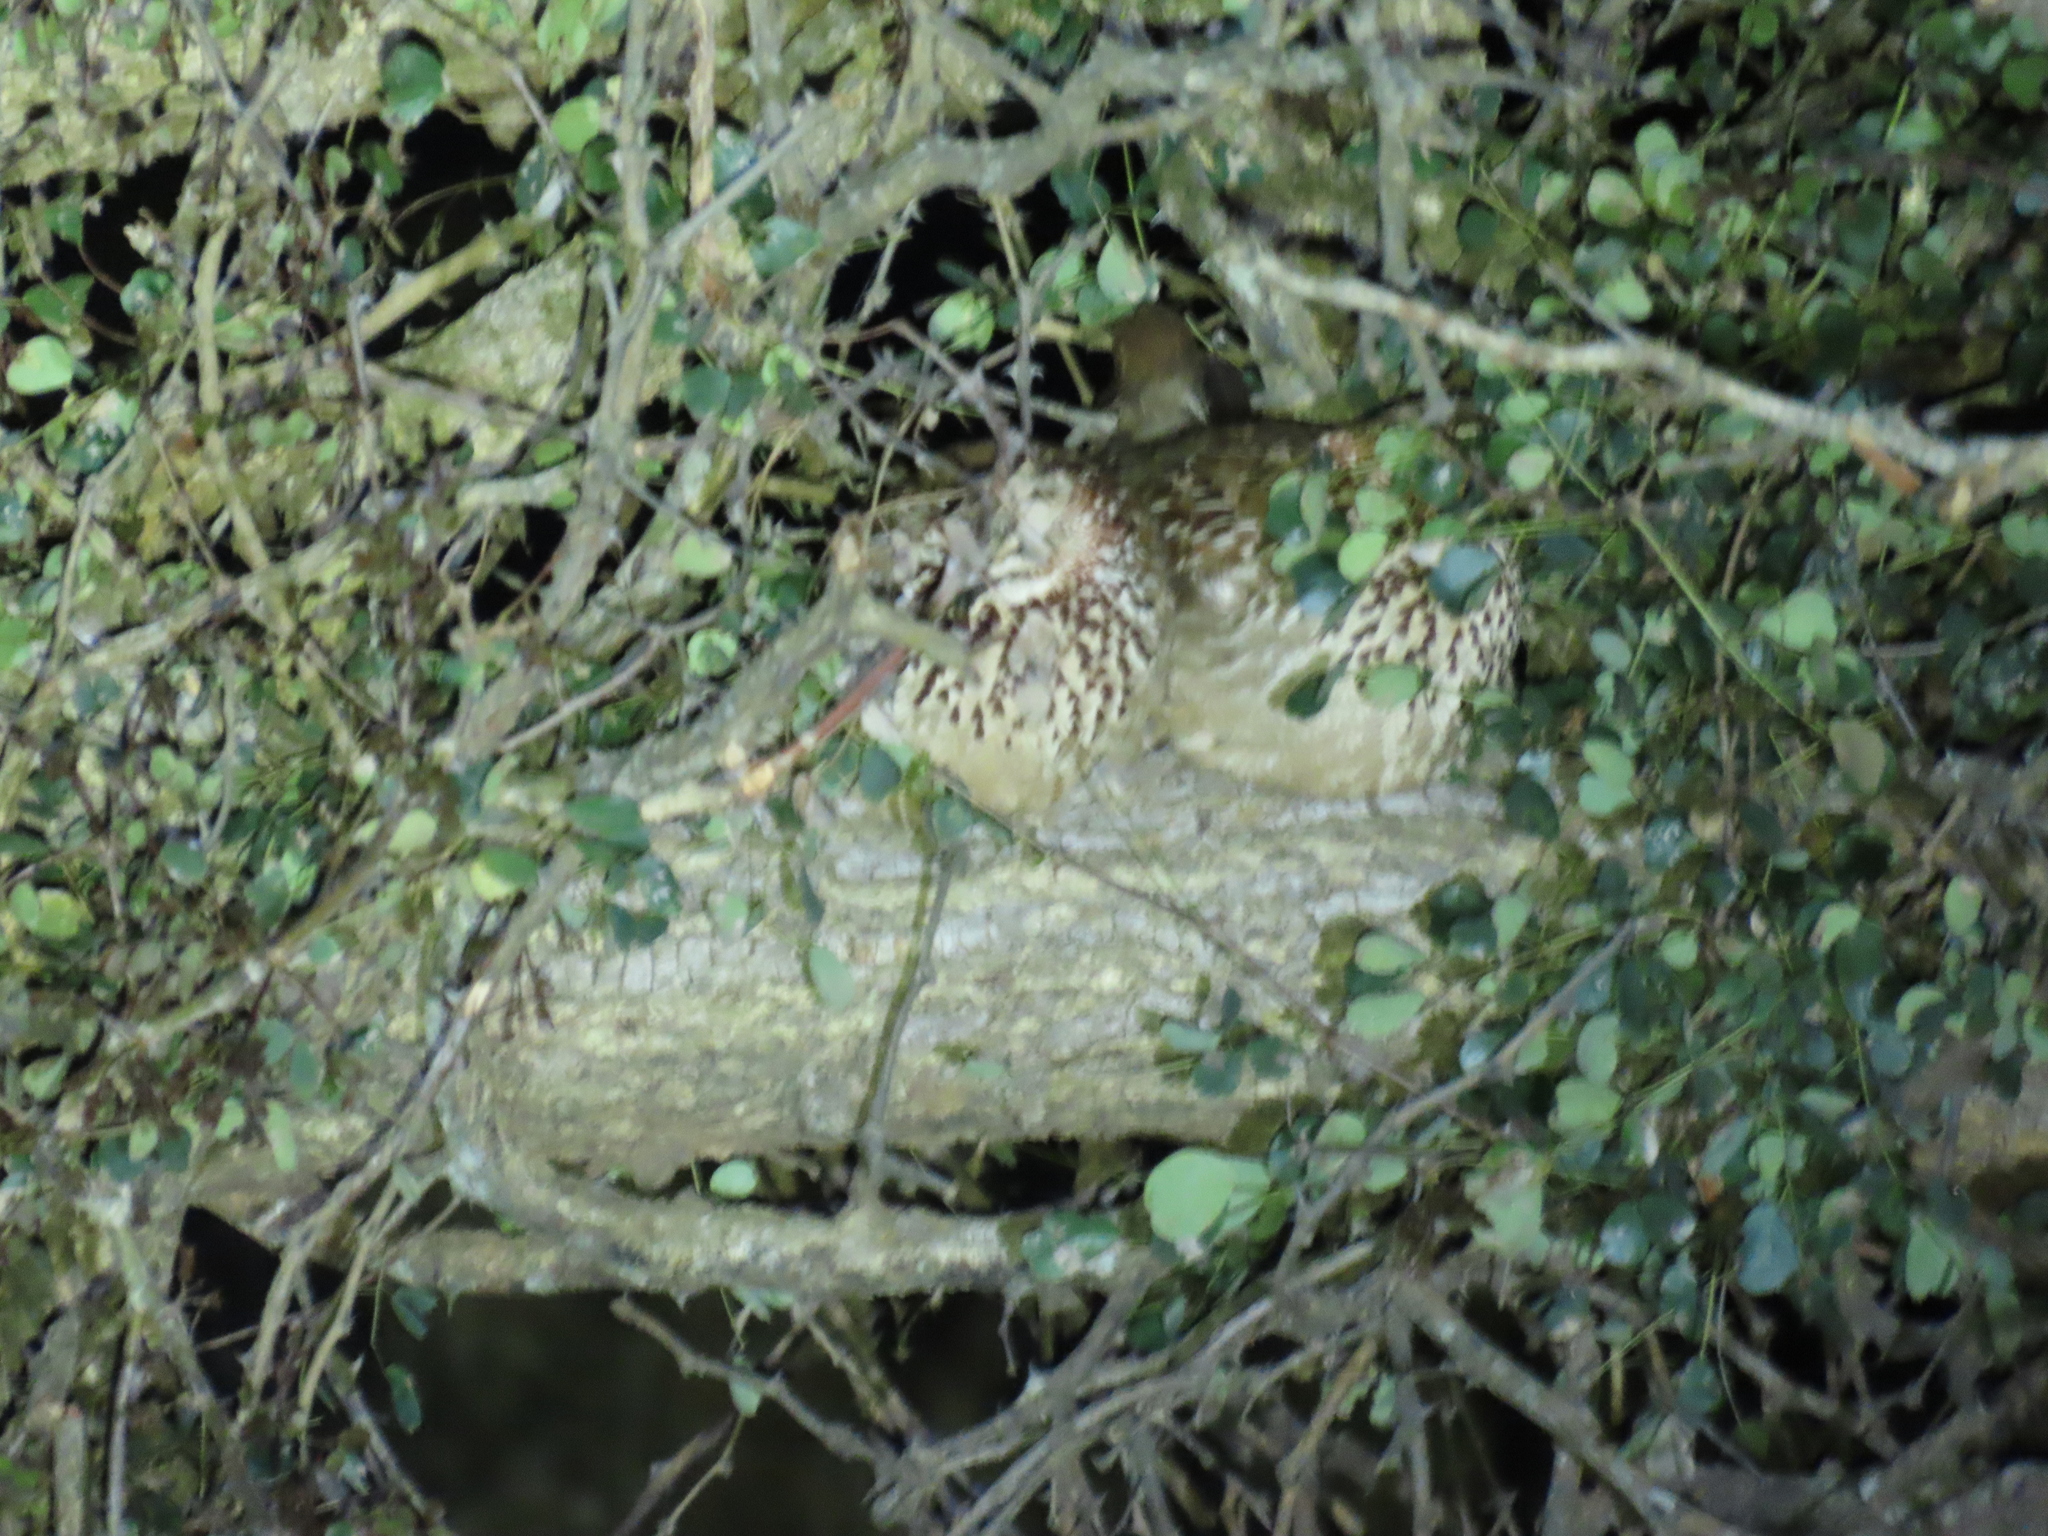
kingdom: Animalia
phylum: Chordata
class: Aves
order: Galliformes
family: Phasianidae
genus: Ortygornis
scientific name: Ortygornis sephaena
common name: Crested francolin
